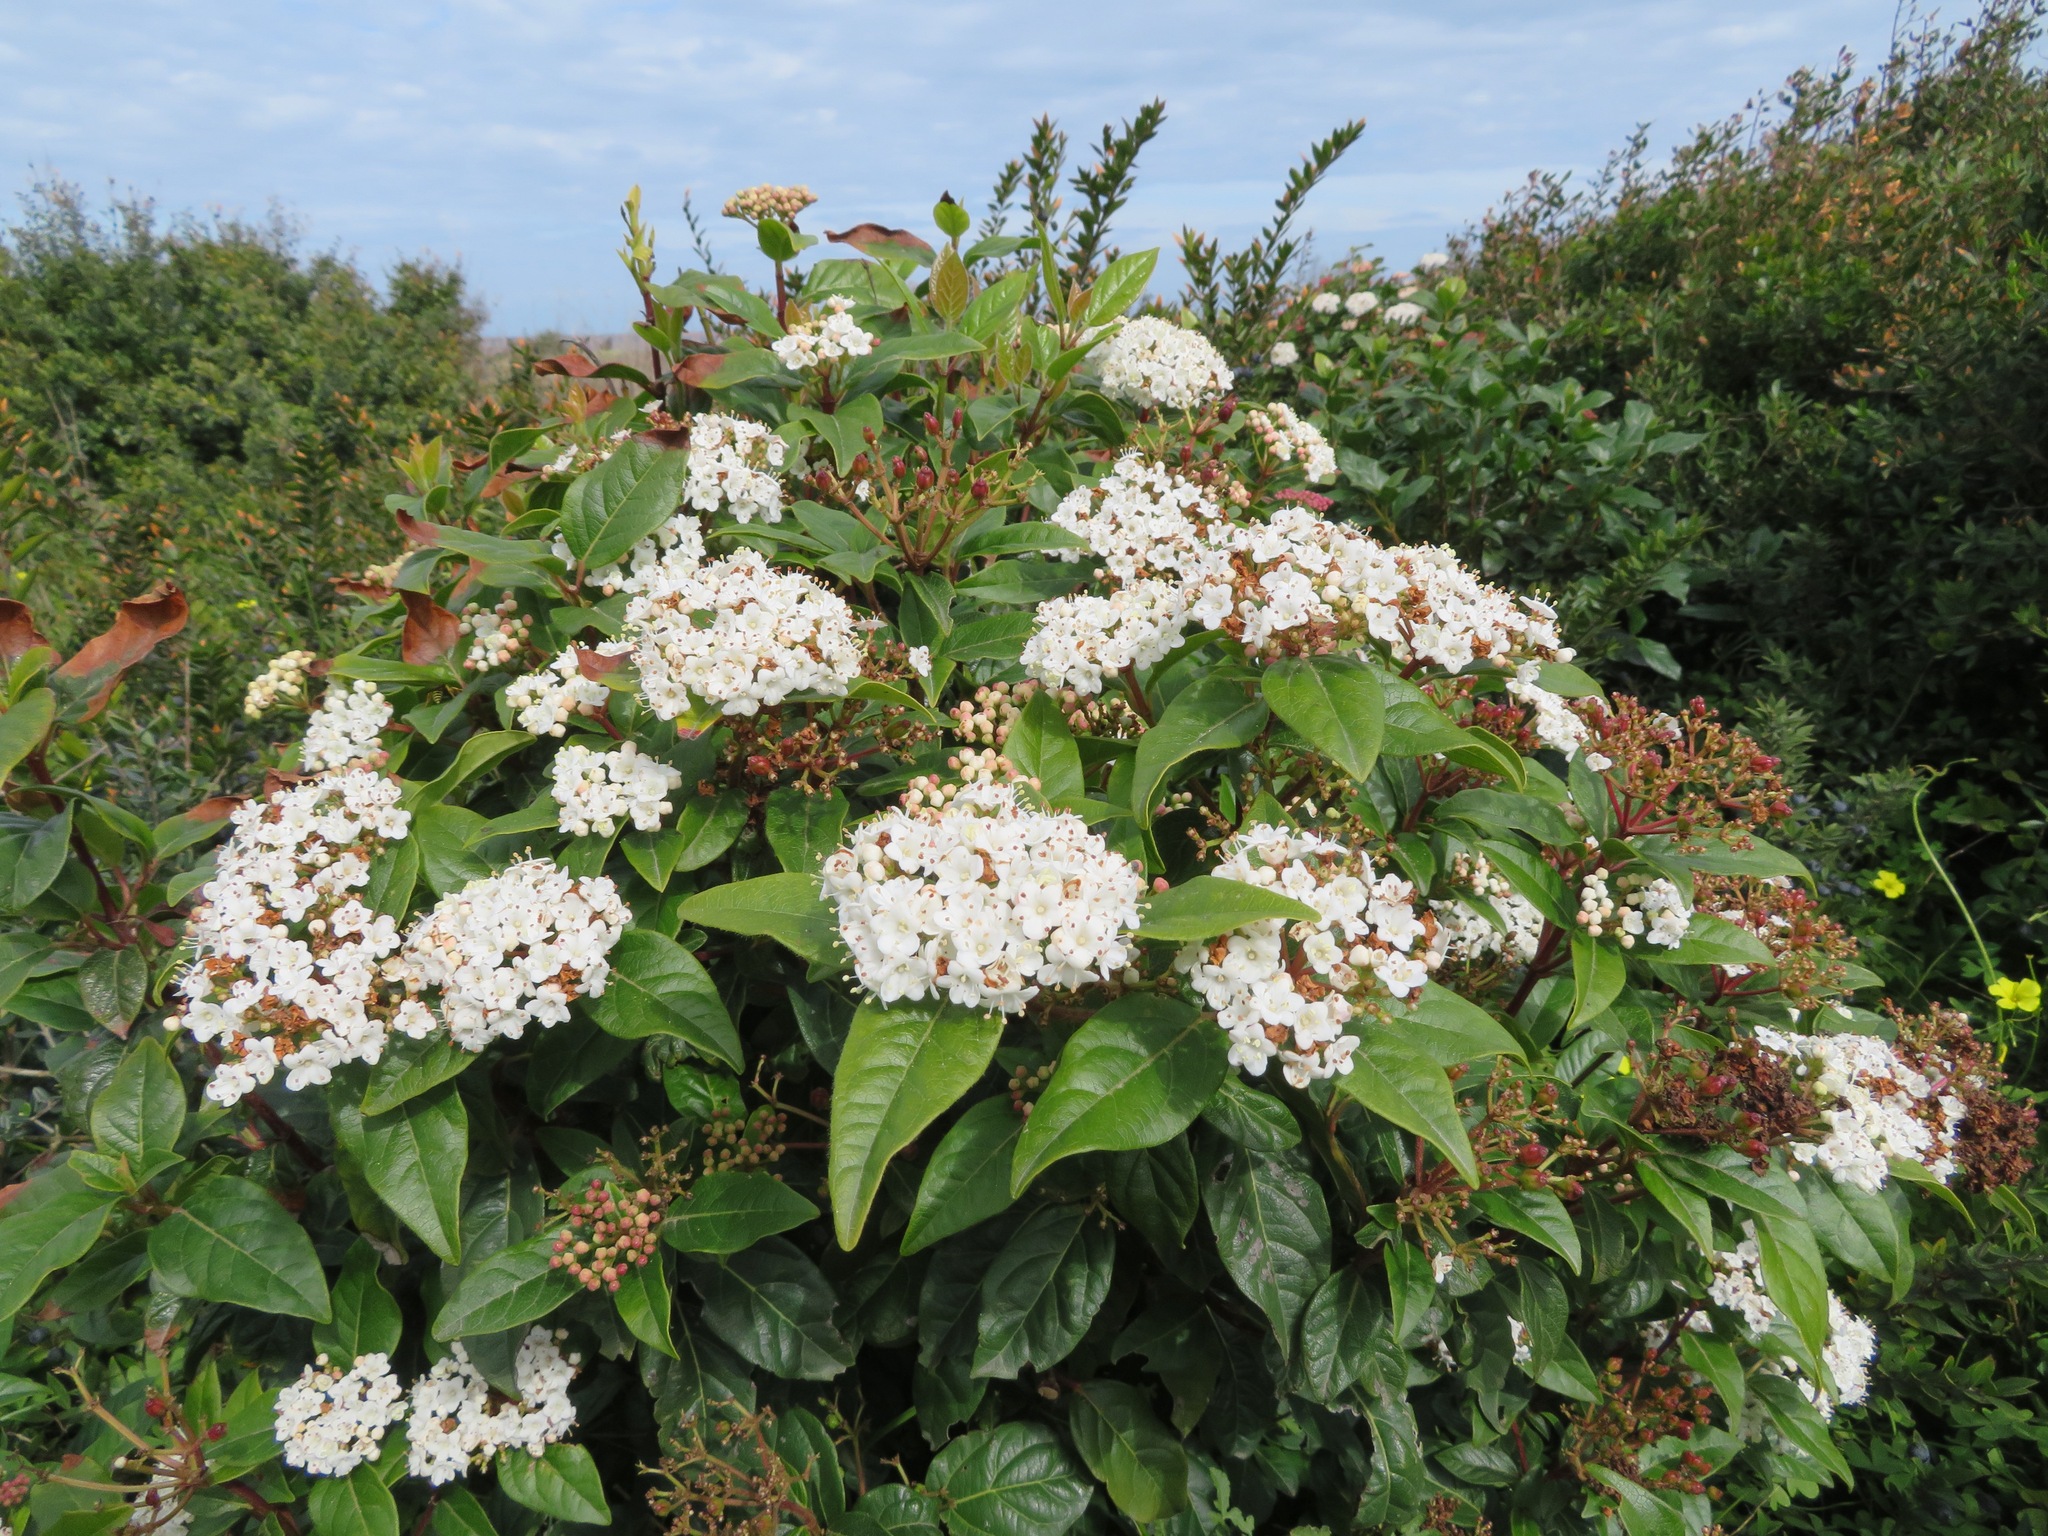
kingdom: Plantae
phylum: Tracheophyta
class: Magnoliopsida
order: Dipsacales
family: Viburnaceae
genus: Viburnum
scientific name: Viburnum tinus
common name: Laurustinus
